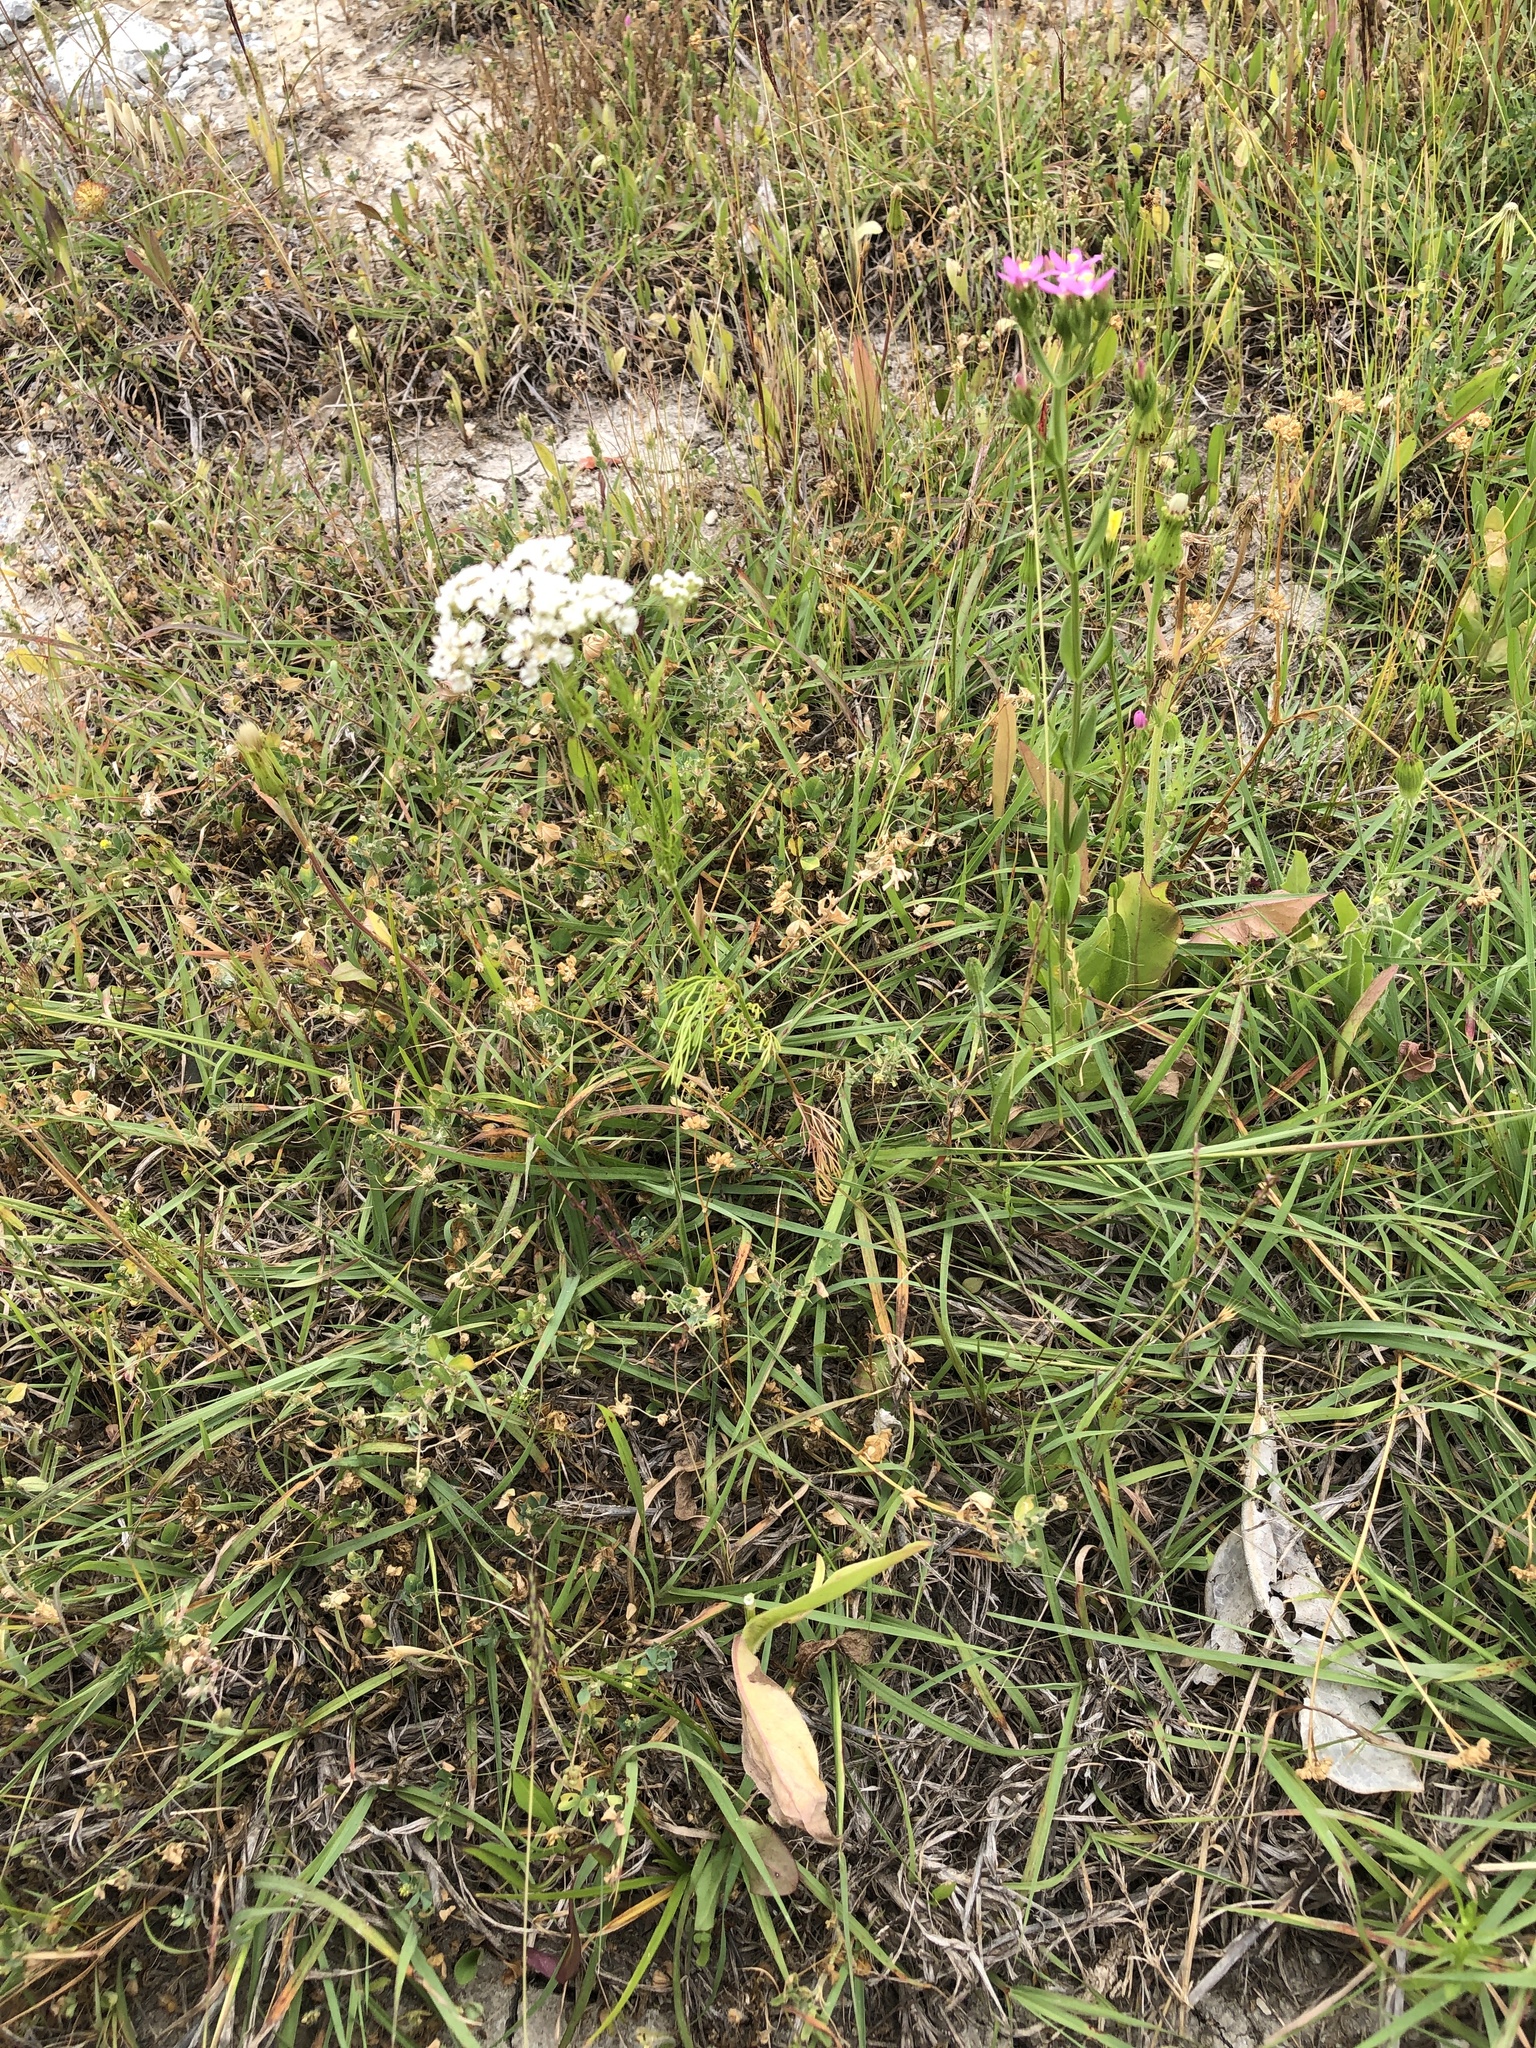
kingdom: Plantae
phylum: Tracheophyta
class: Magnoliopsida
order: Apiales
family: Apiaceae
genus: Atrema
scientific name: Atrema americanum
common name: Prairie-bishop
